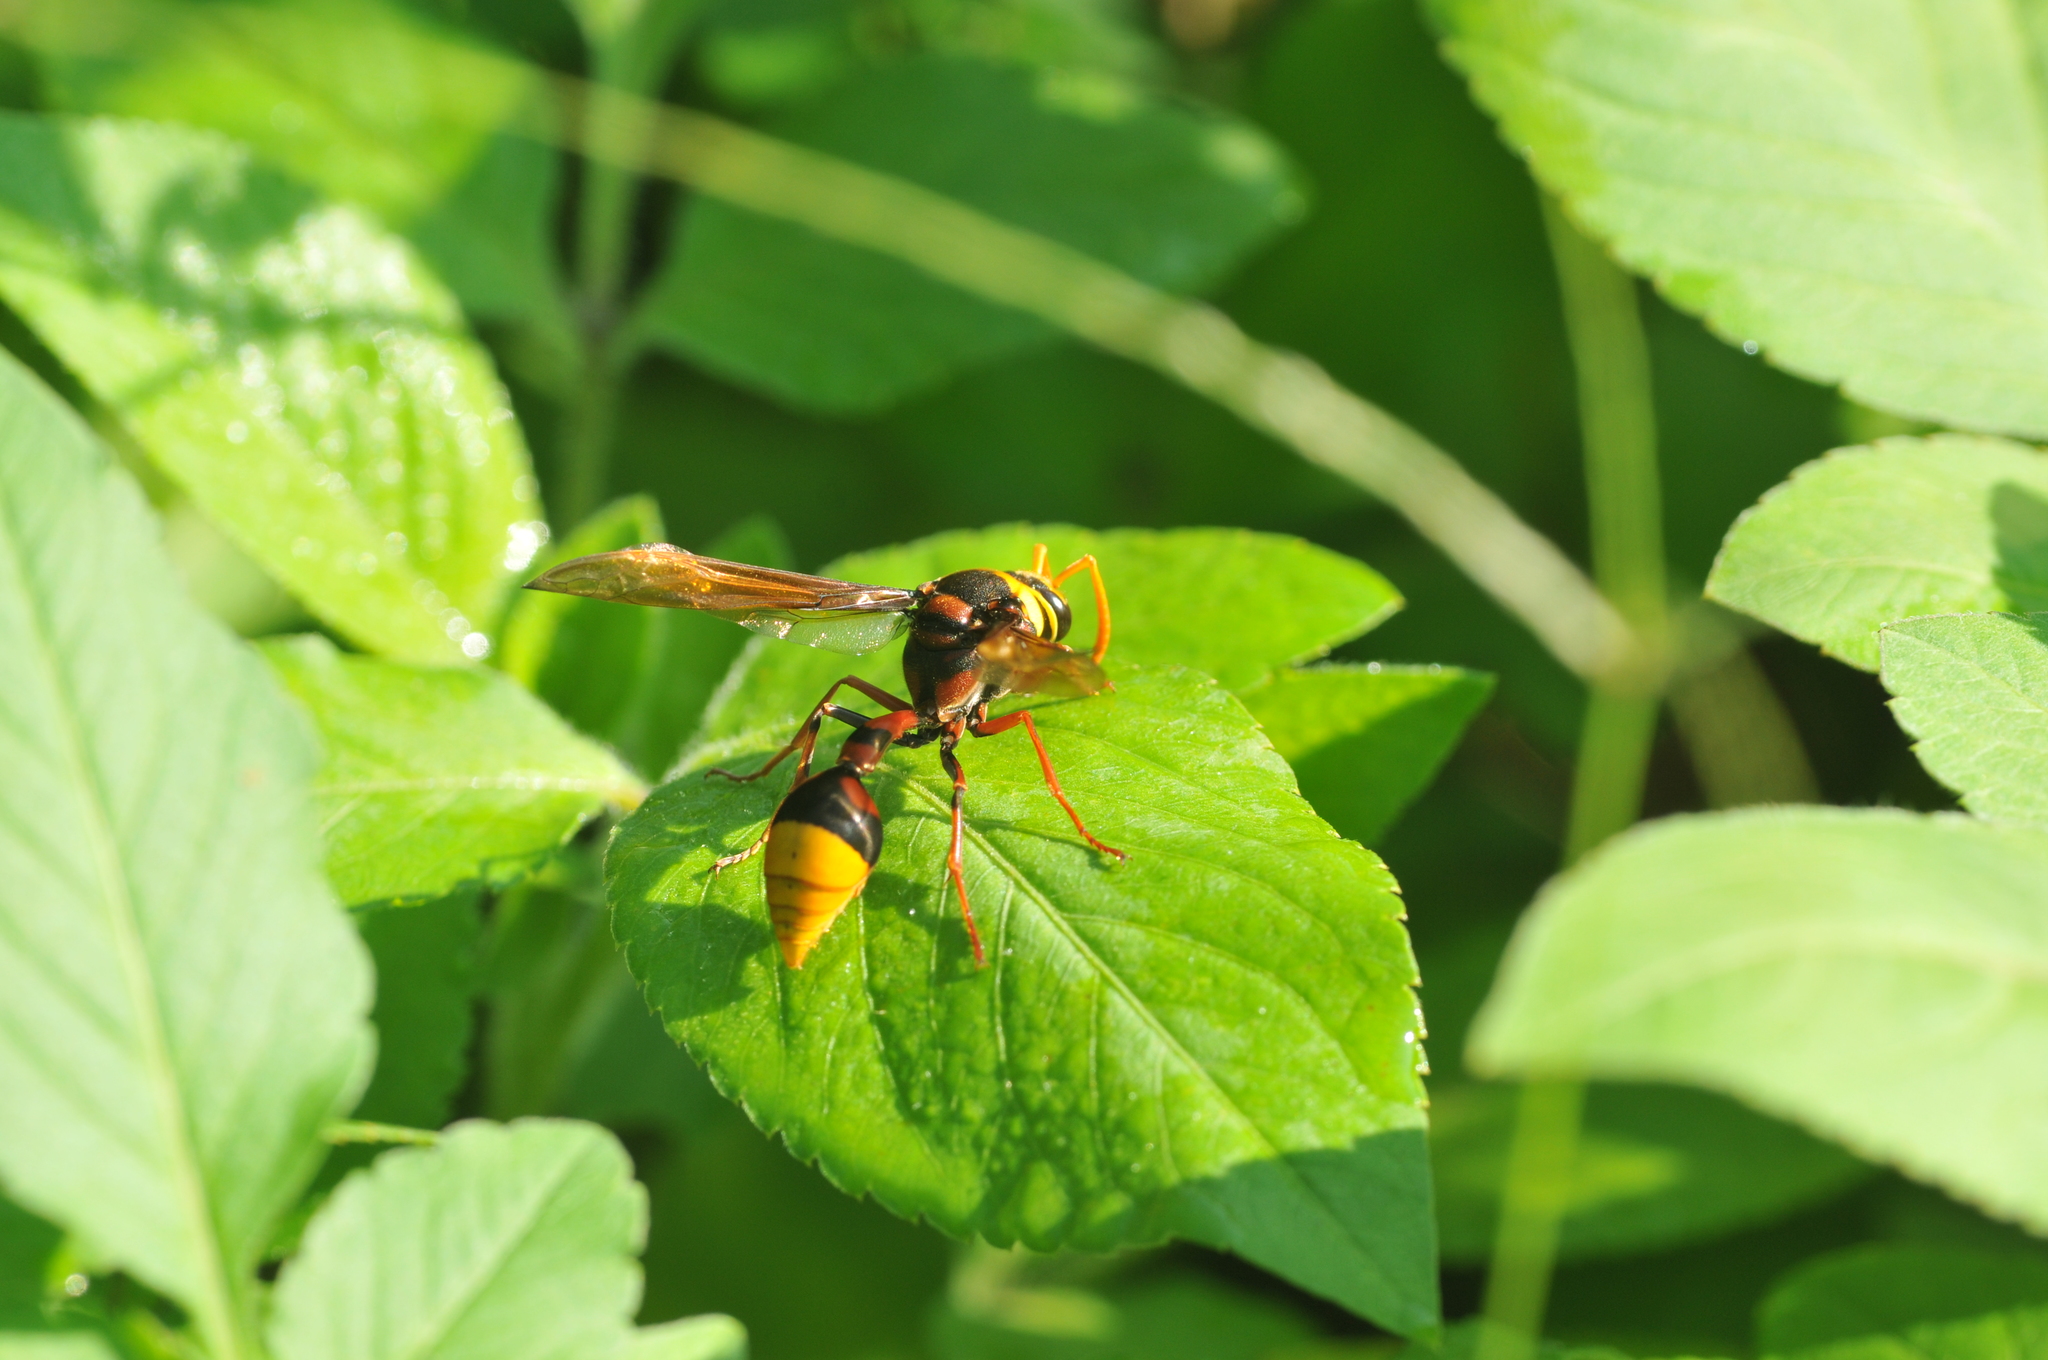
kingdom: Animalia
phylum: Arthropoda
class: Insecta
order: Hymenoptera
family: Eumenidae
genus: Delta
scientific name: Delta pyriforme
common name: Wasp
